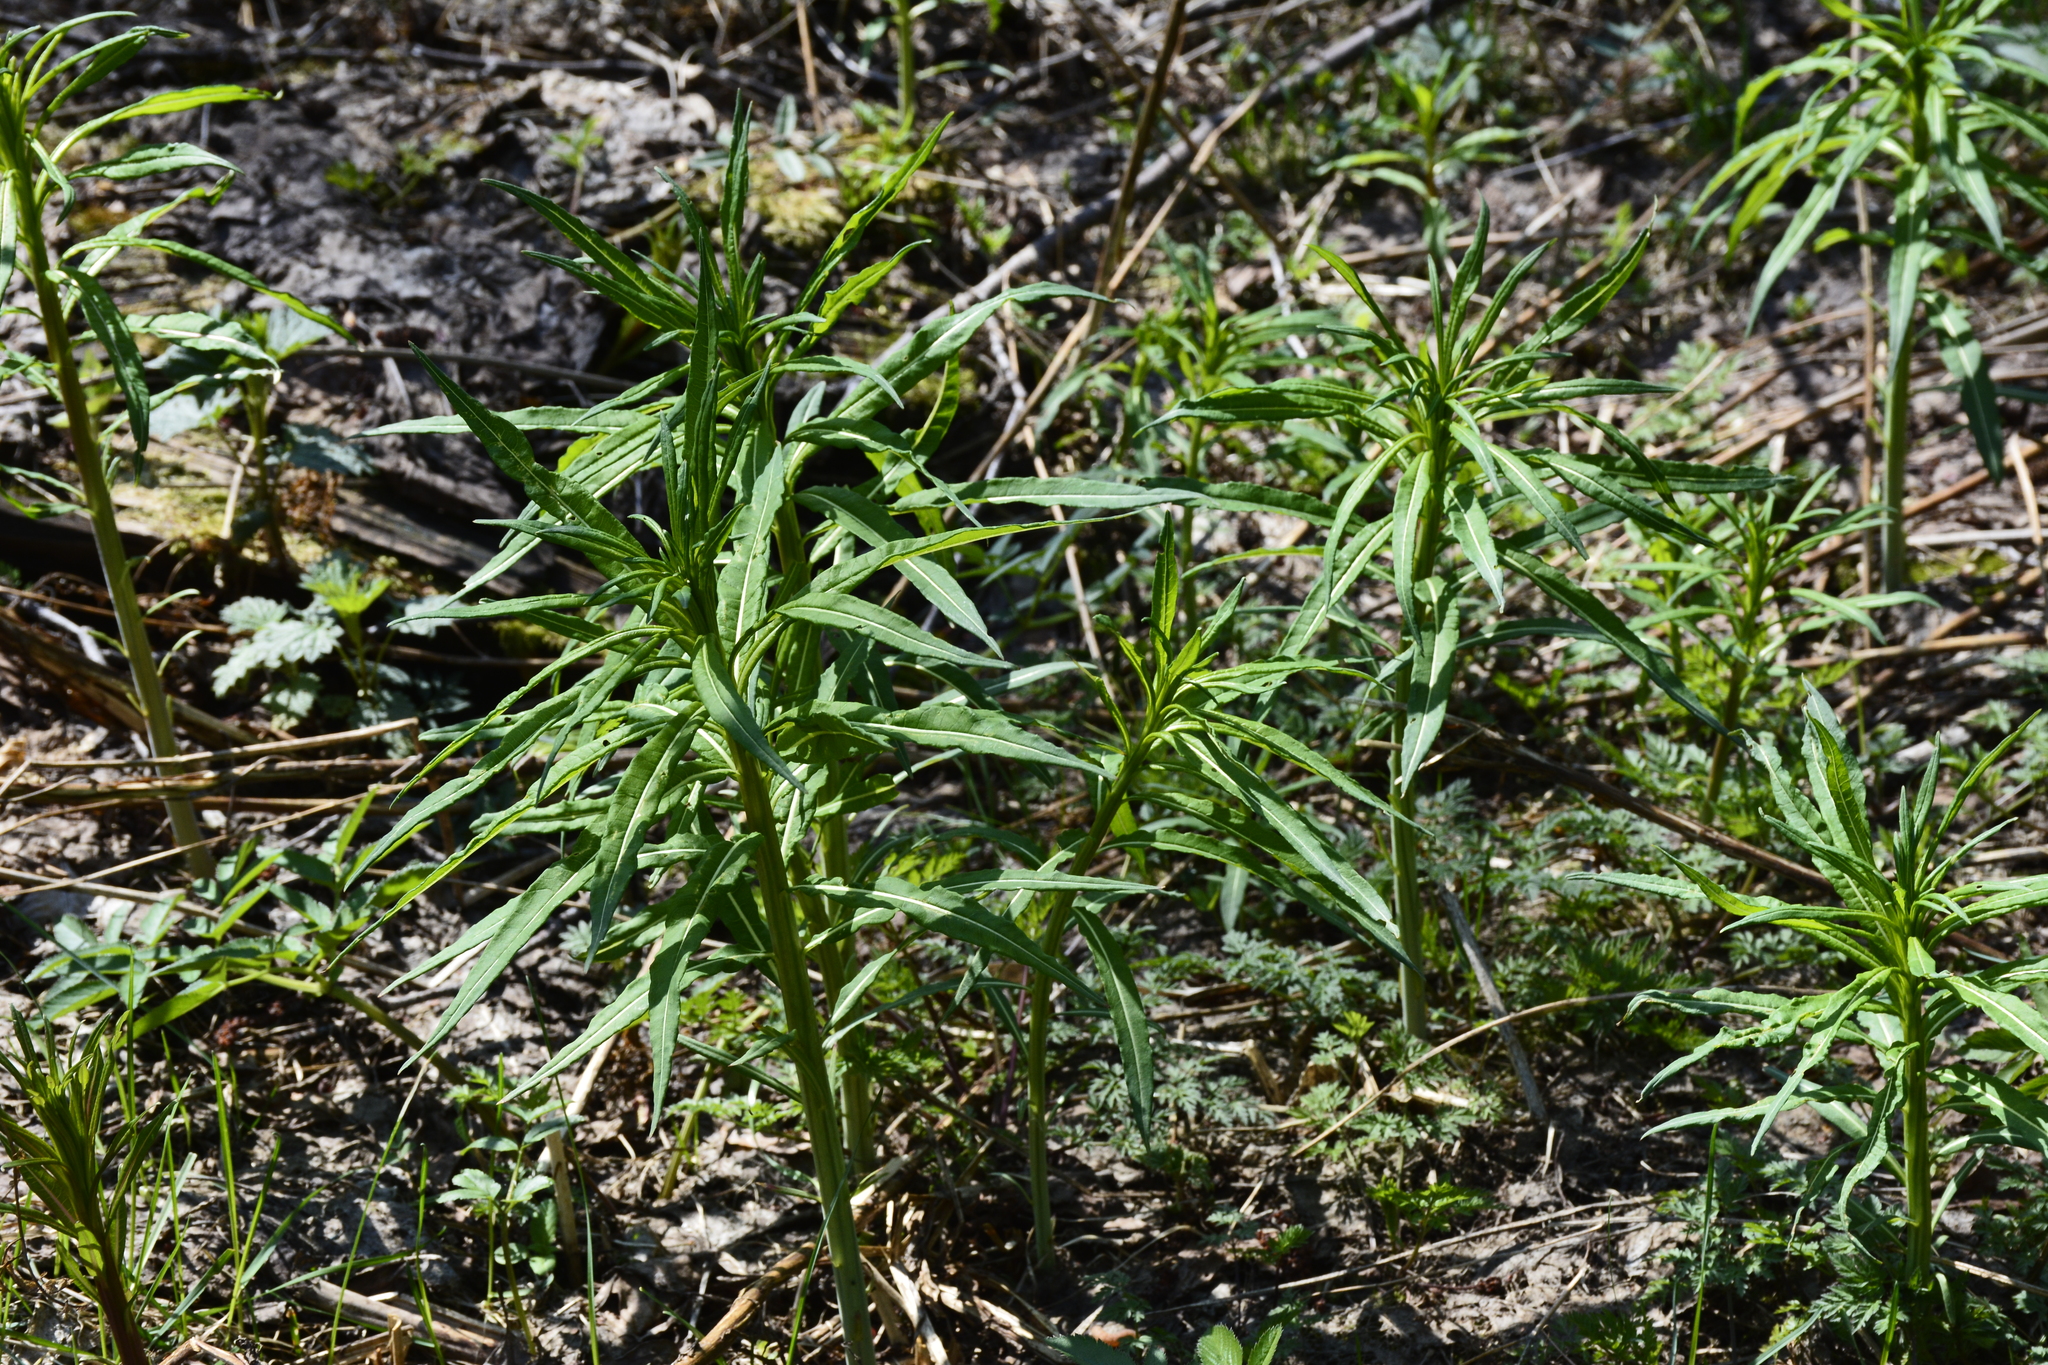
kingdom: Plantae
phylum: Tracheophyta
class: Magnoliopsida
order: Myrtales
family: Onagraceae
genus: Chamaenerion
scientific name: Chamaenerion angustifolium
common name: Fireweed
